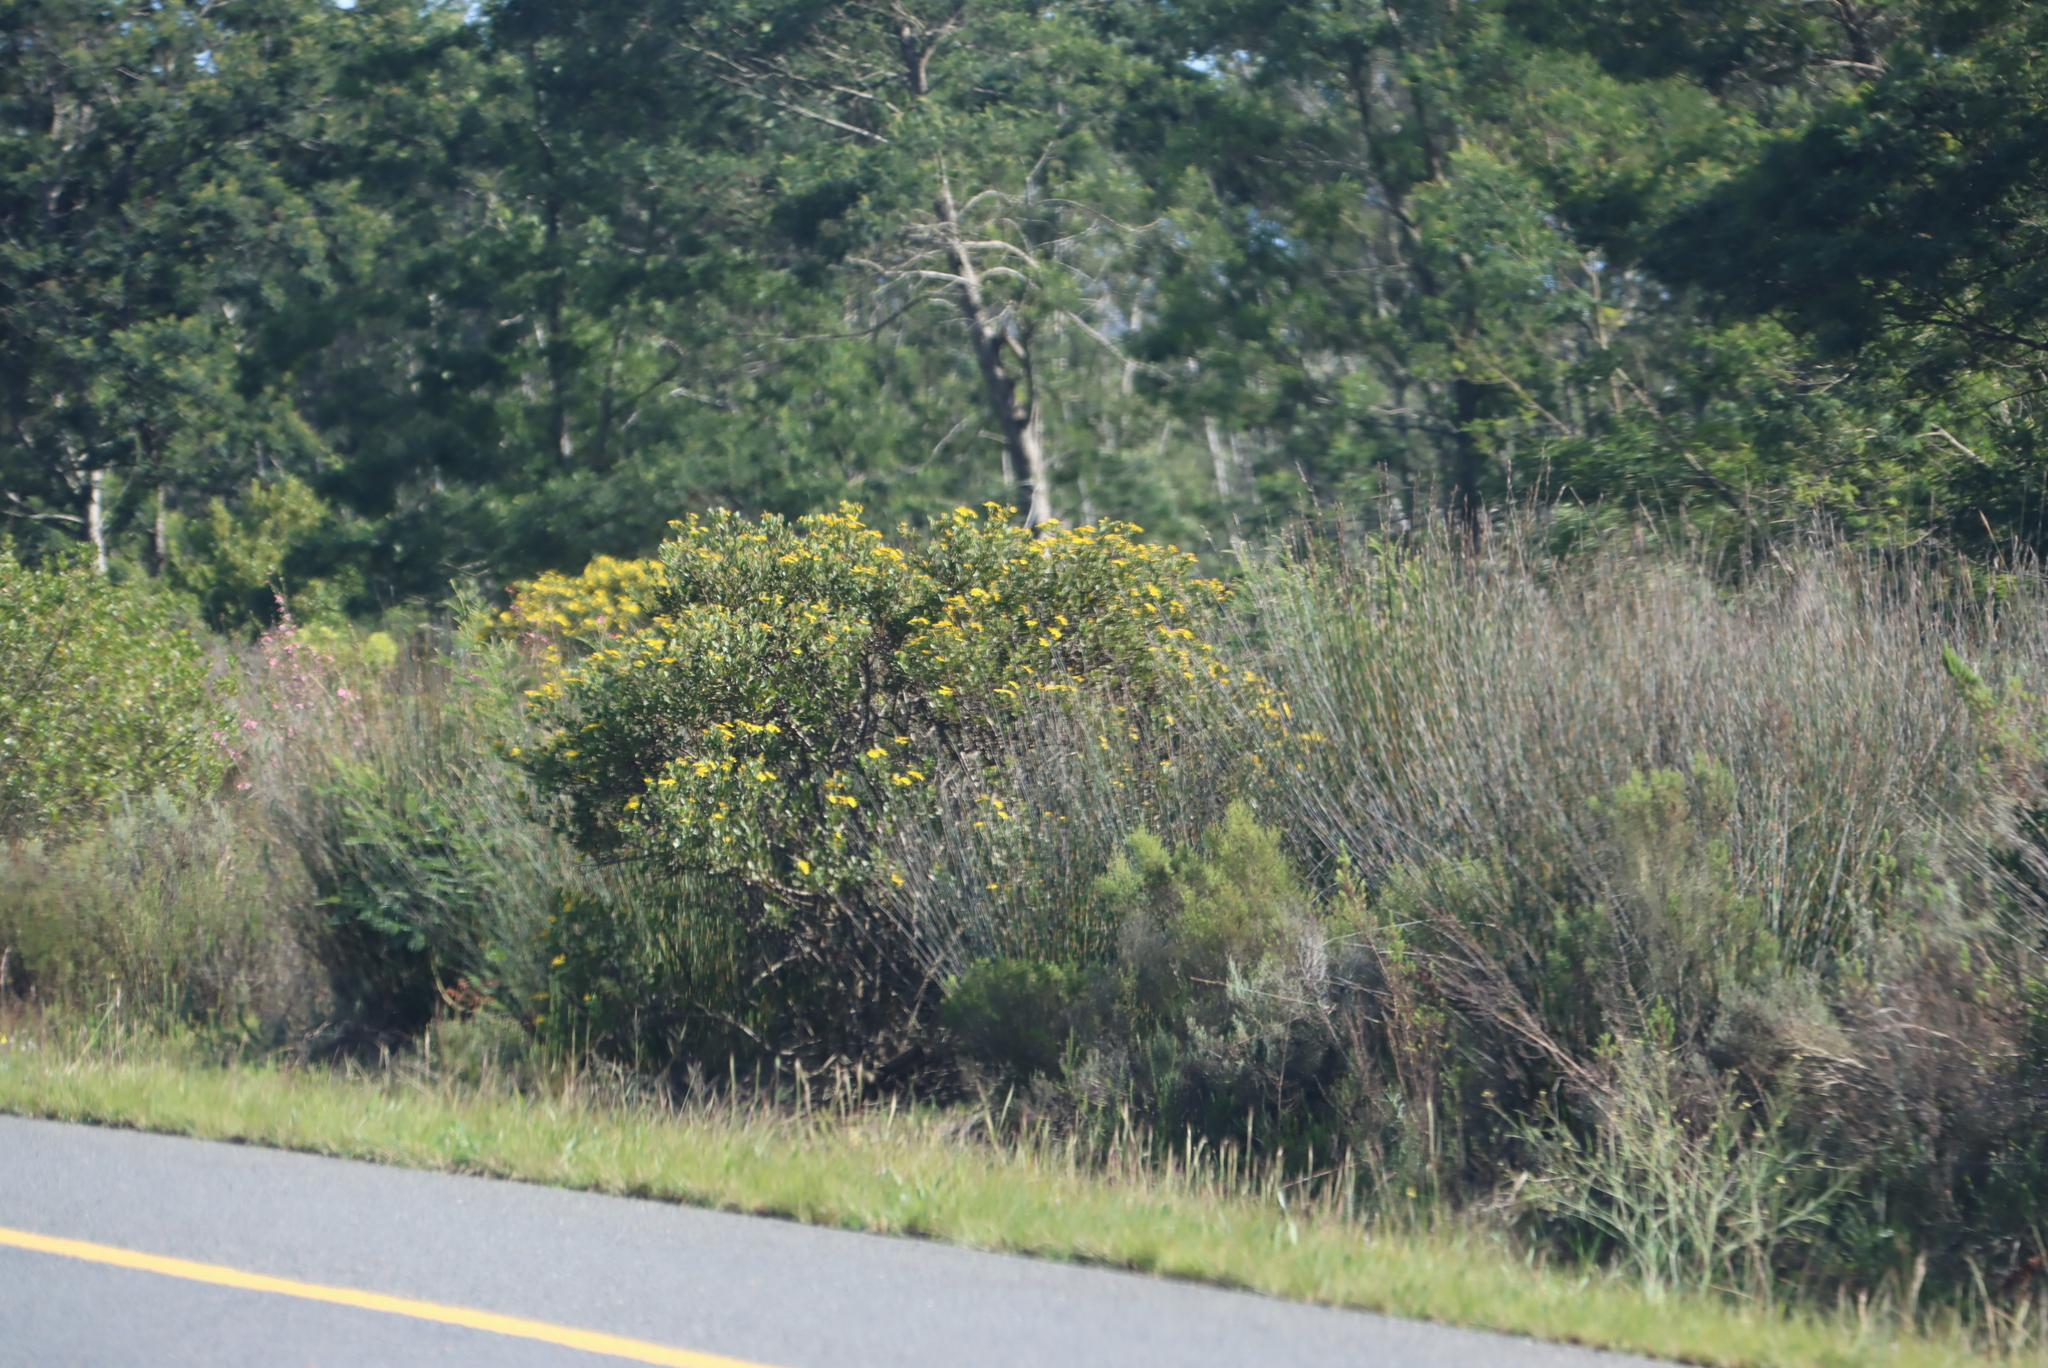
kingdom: Plantae
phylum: Tracheophyta
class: Liliopsida
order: Poales
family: Restionaceae
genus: Thamnochortus
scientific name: Thamnochortus insignis
